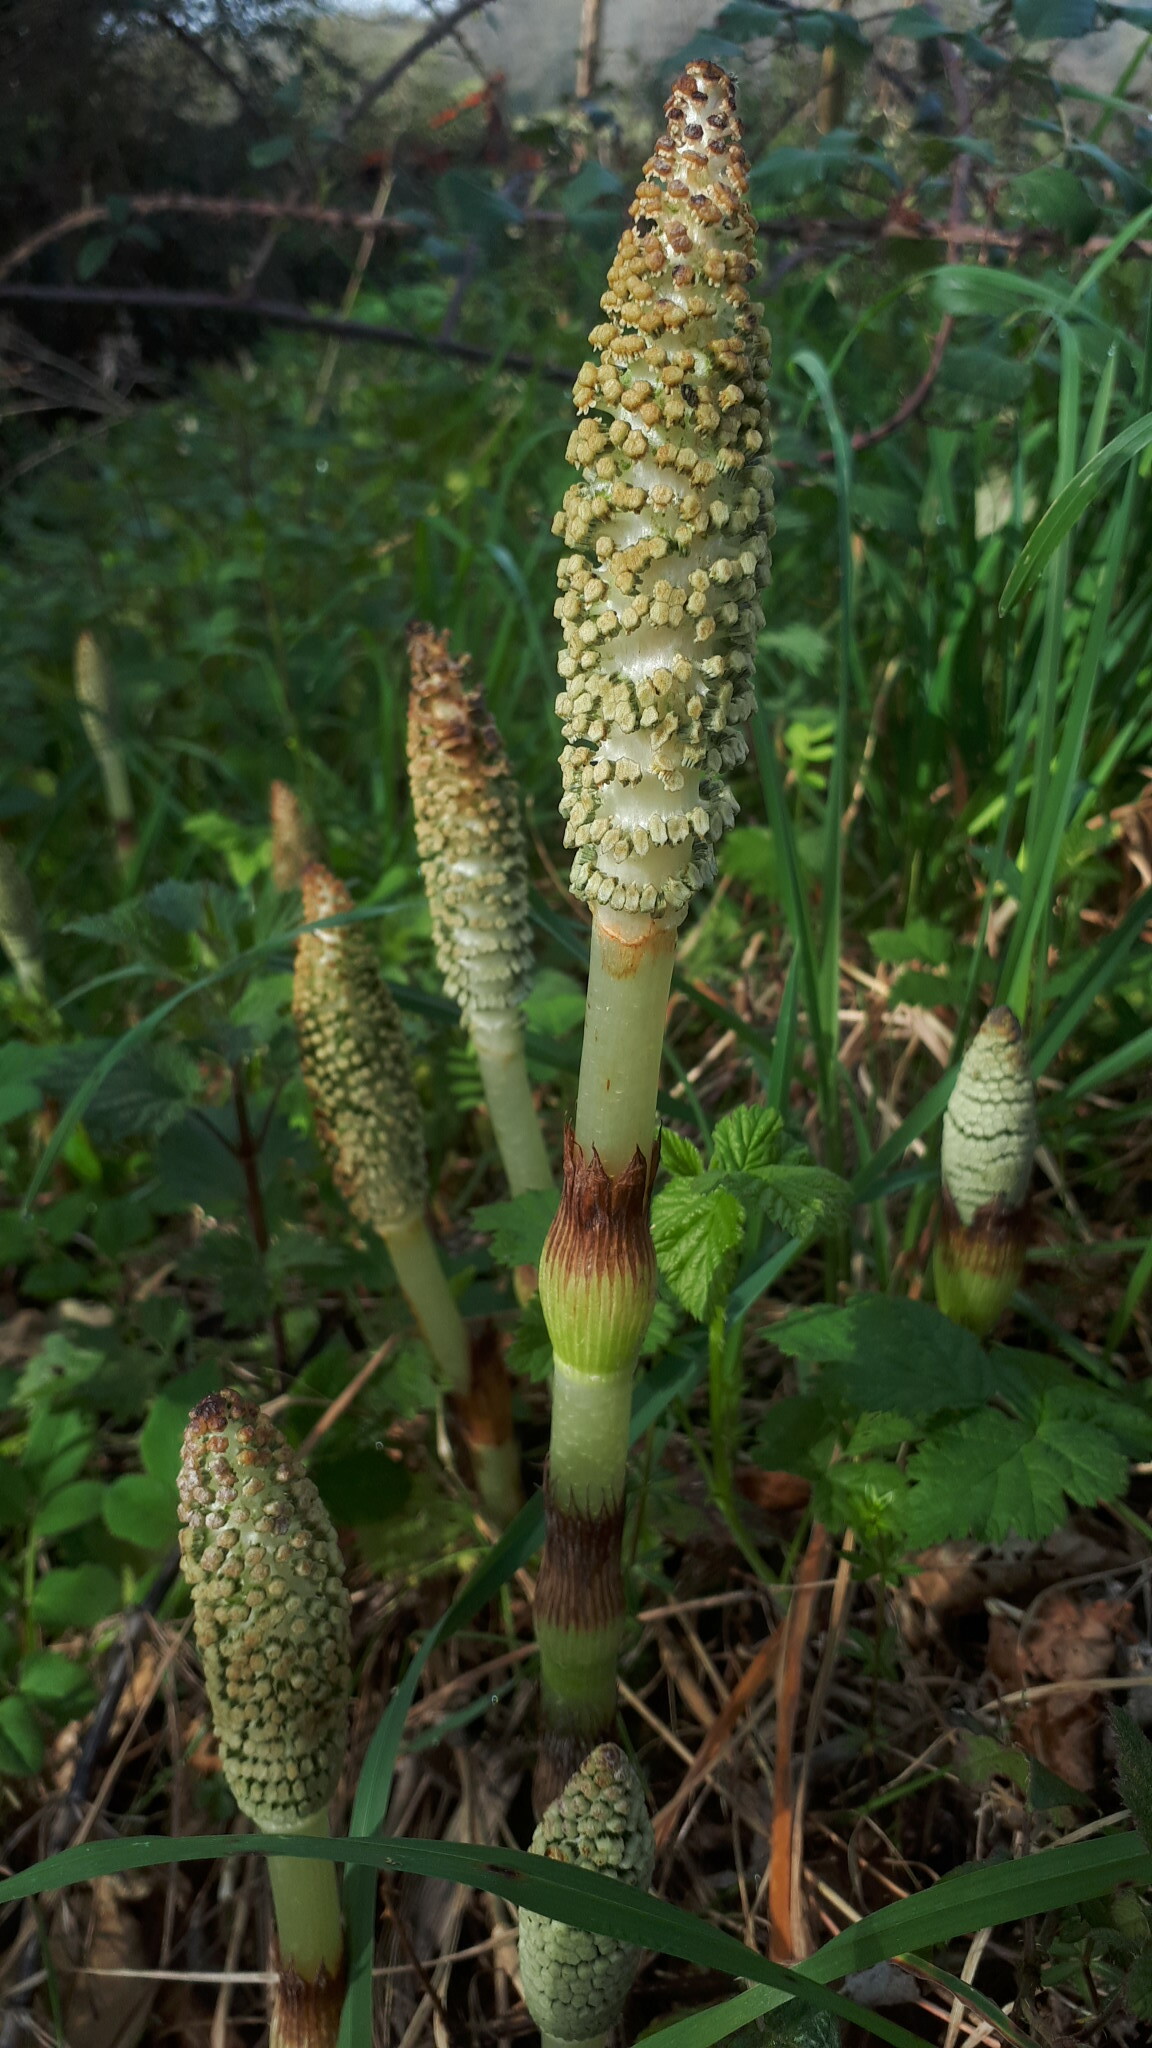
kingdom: Plantae
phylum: Tracheophyta
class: Polypodiopsida
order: Equisetales
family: Equisetaceae
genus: Equisetum
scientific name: Equisetum telmateia
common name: Great horsetail
